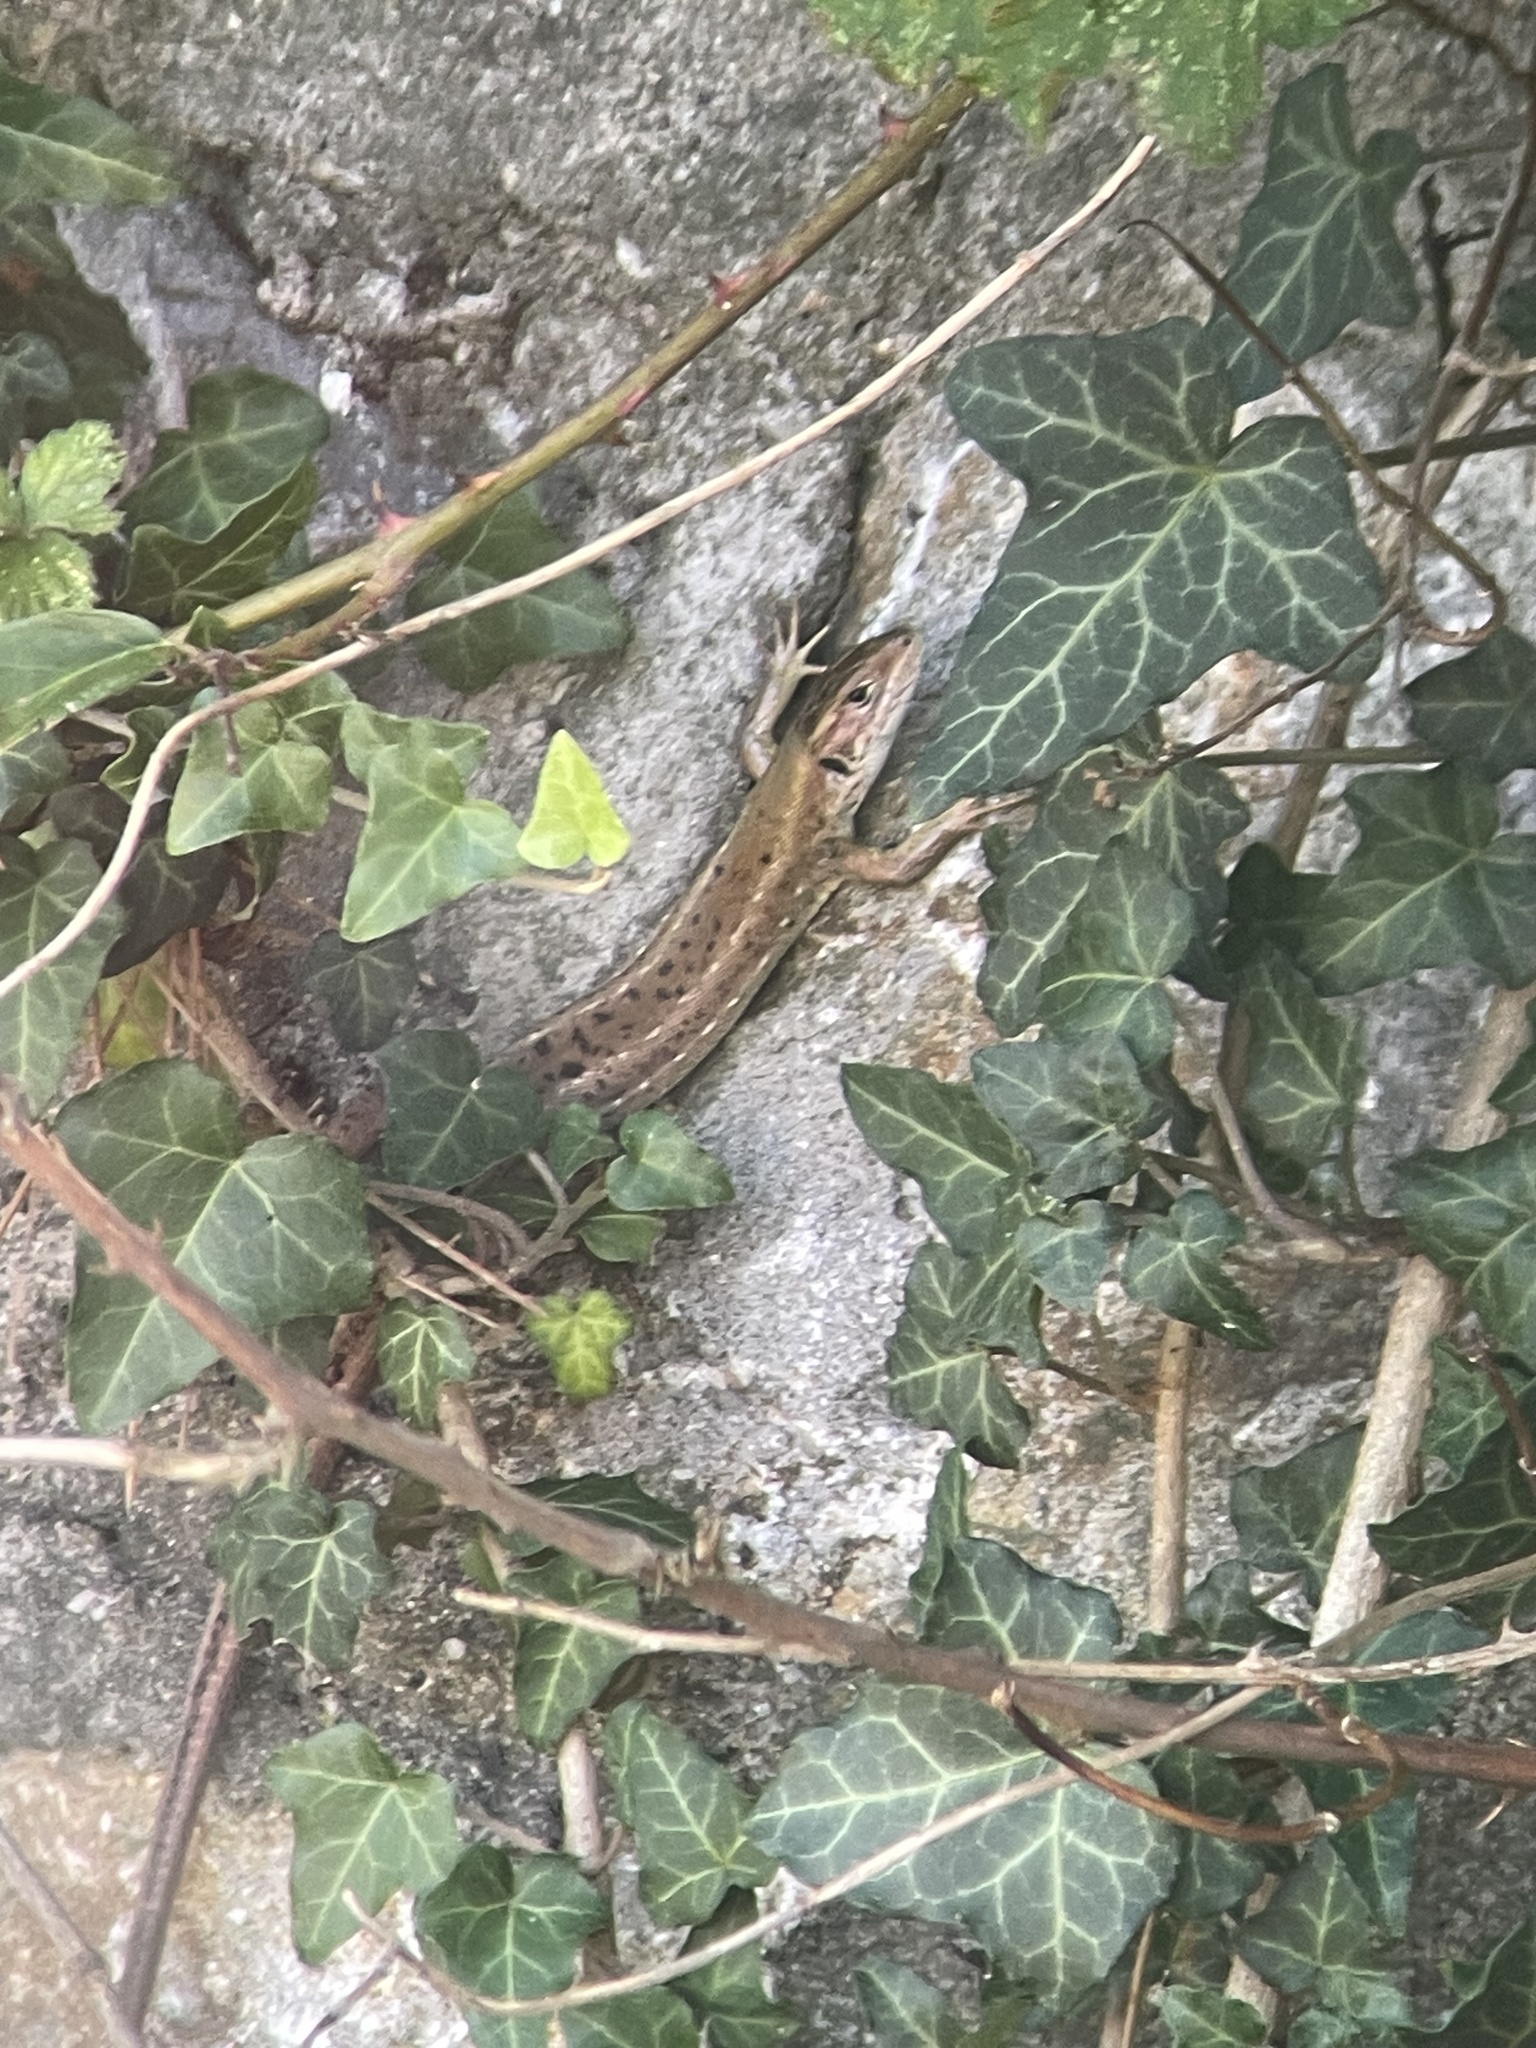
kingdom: Animalia
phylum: Chordata
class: Squamata
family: Lacertidae
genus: Lacerta
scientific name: Lacerta viridis
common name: European green lizard
